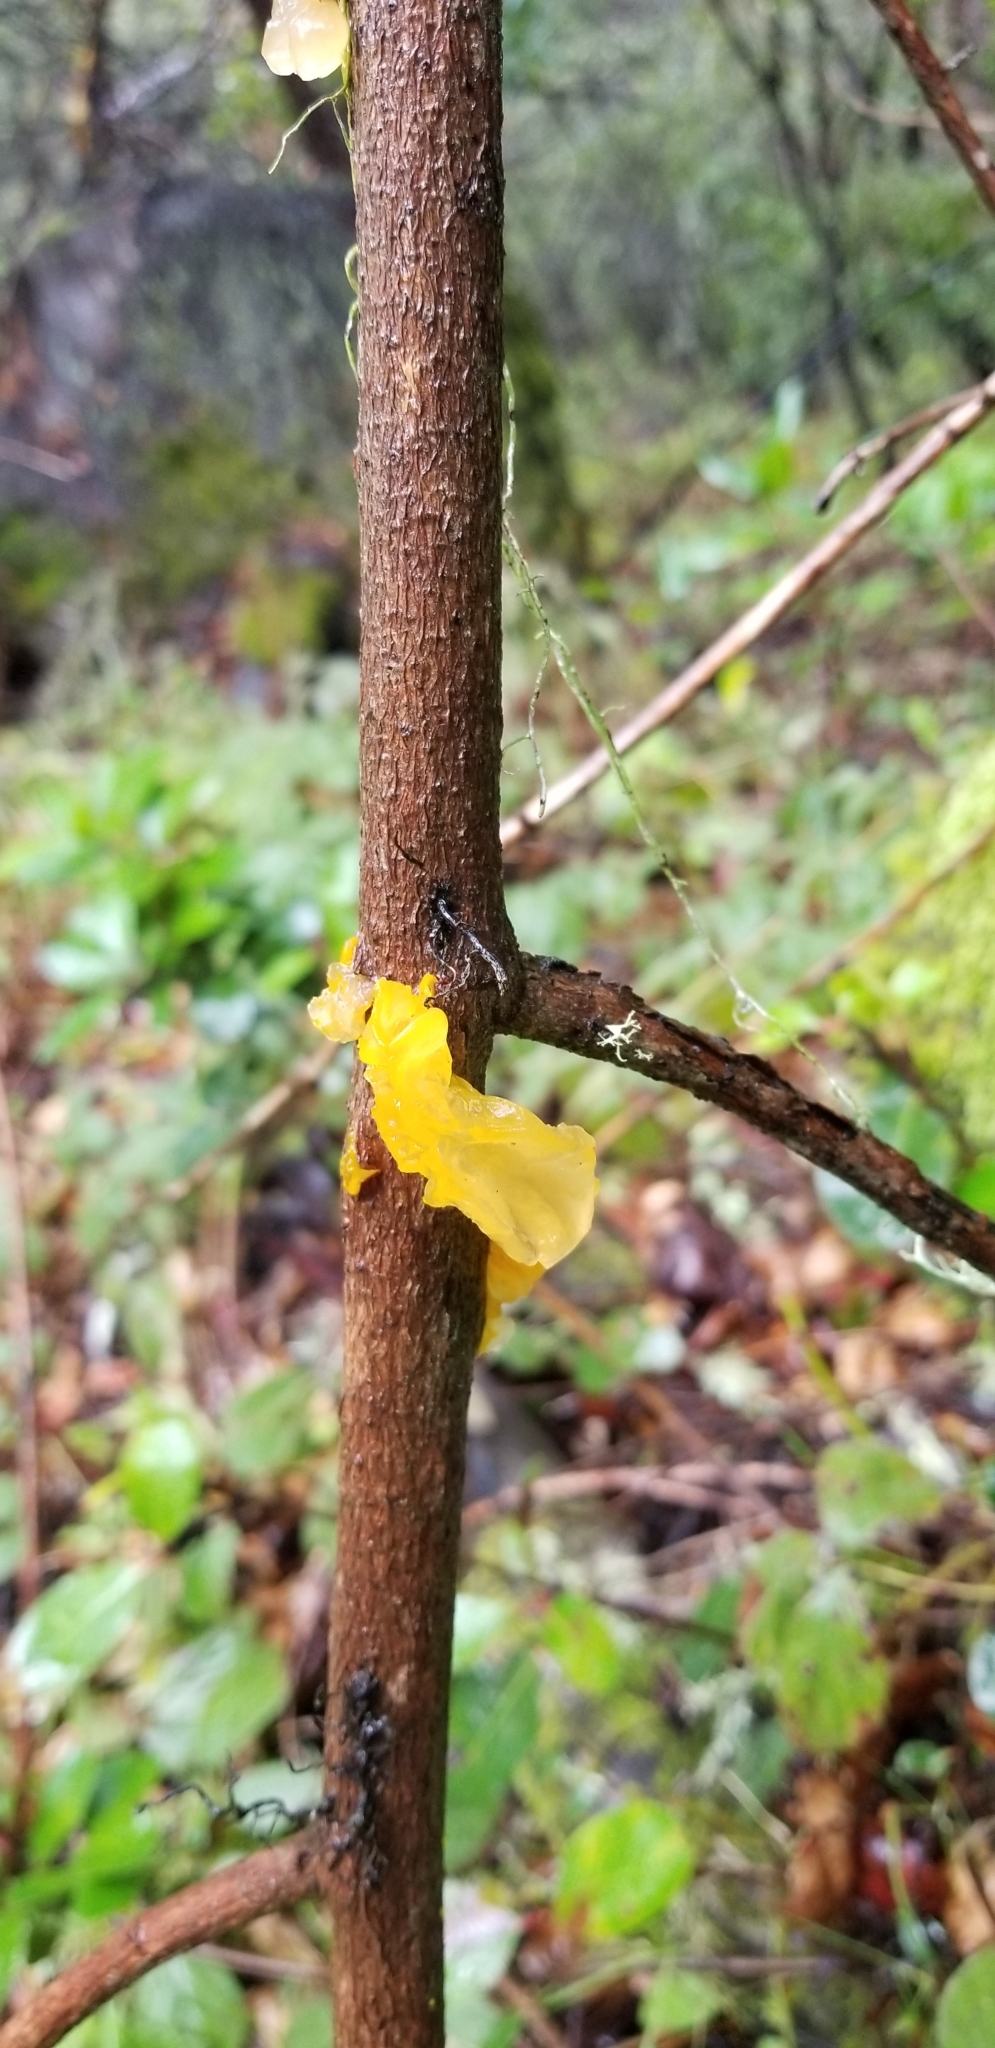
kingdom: Fungi
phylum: Basidiomycota
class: Tremellomycetes
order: Tremellales
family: Tremellaceae
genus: Tremella
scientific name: Tremella mesenterica
